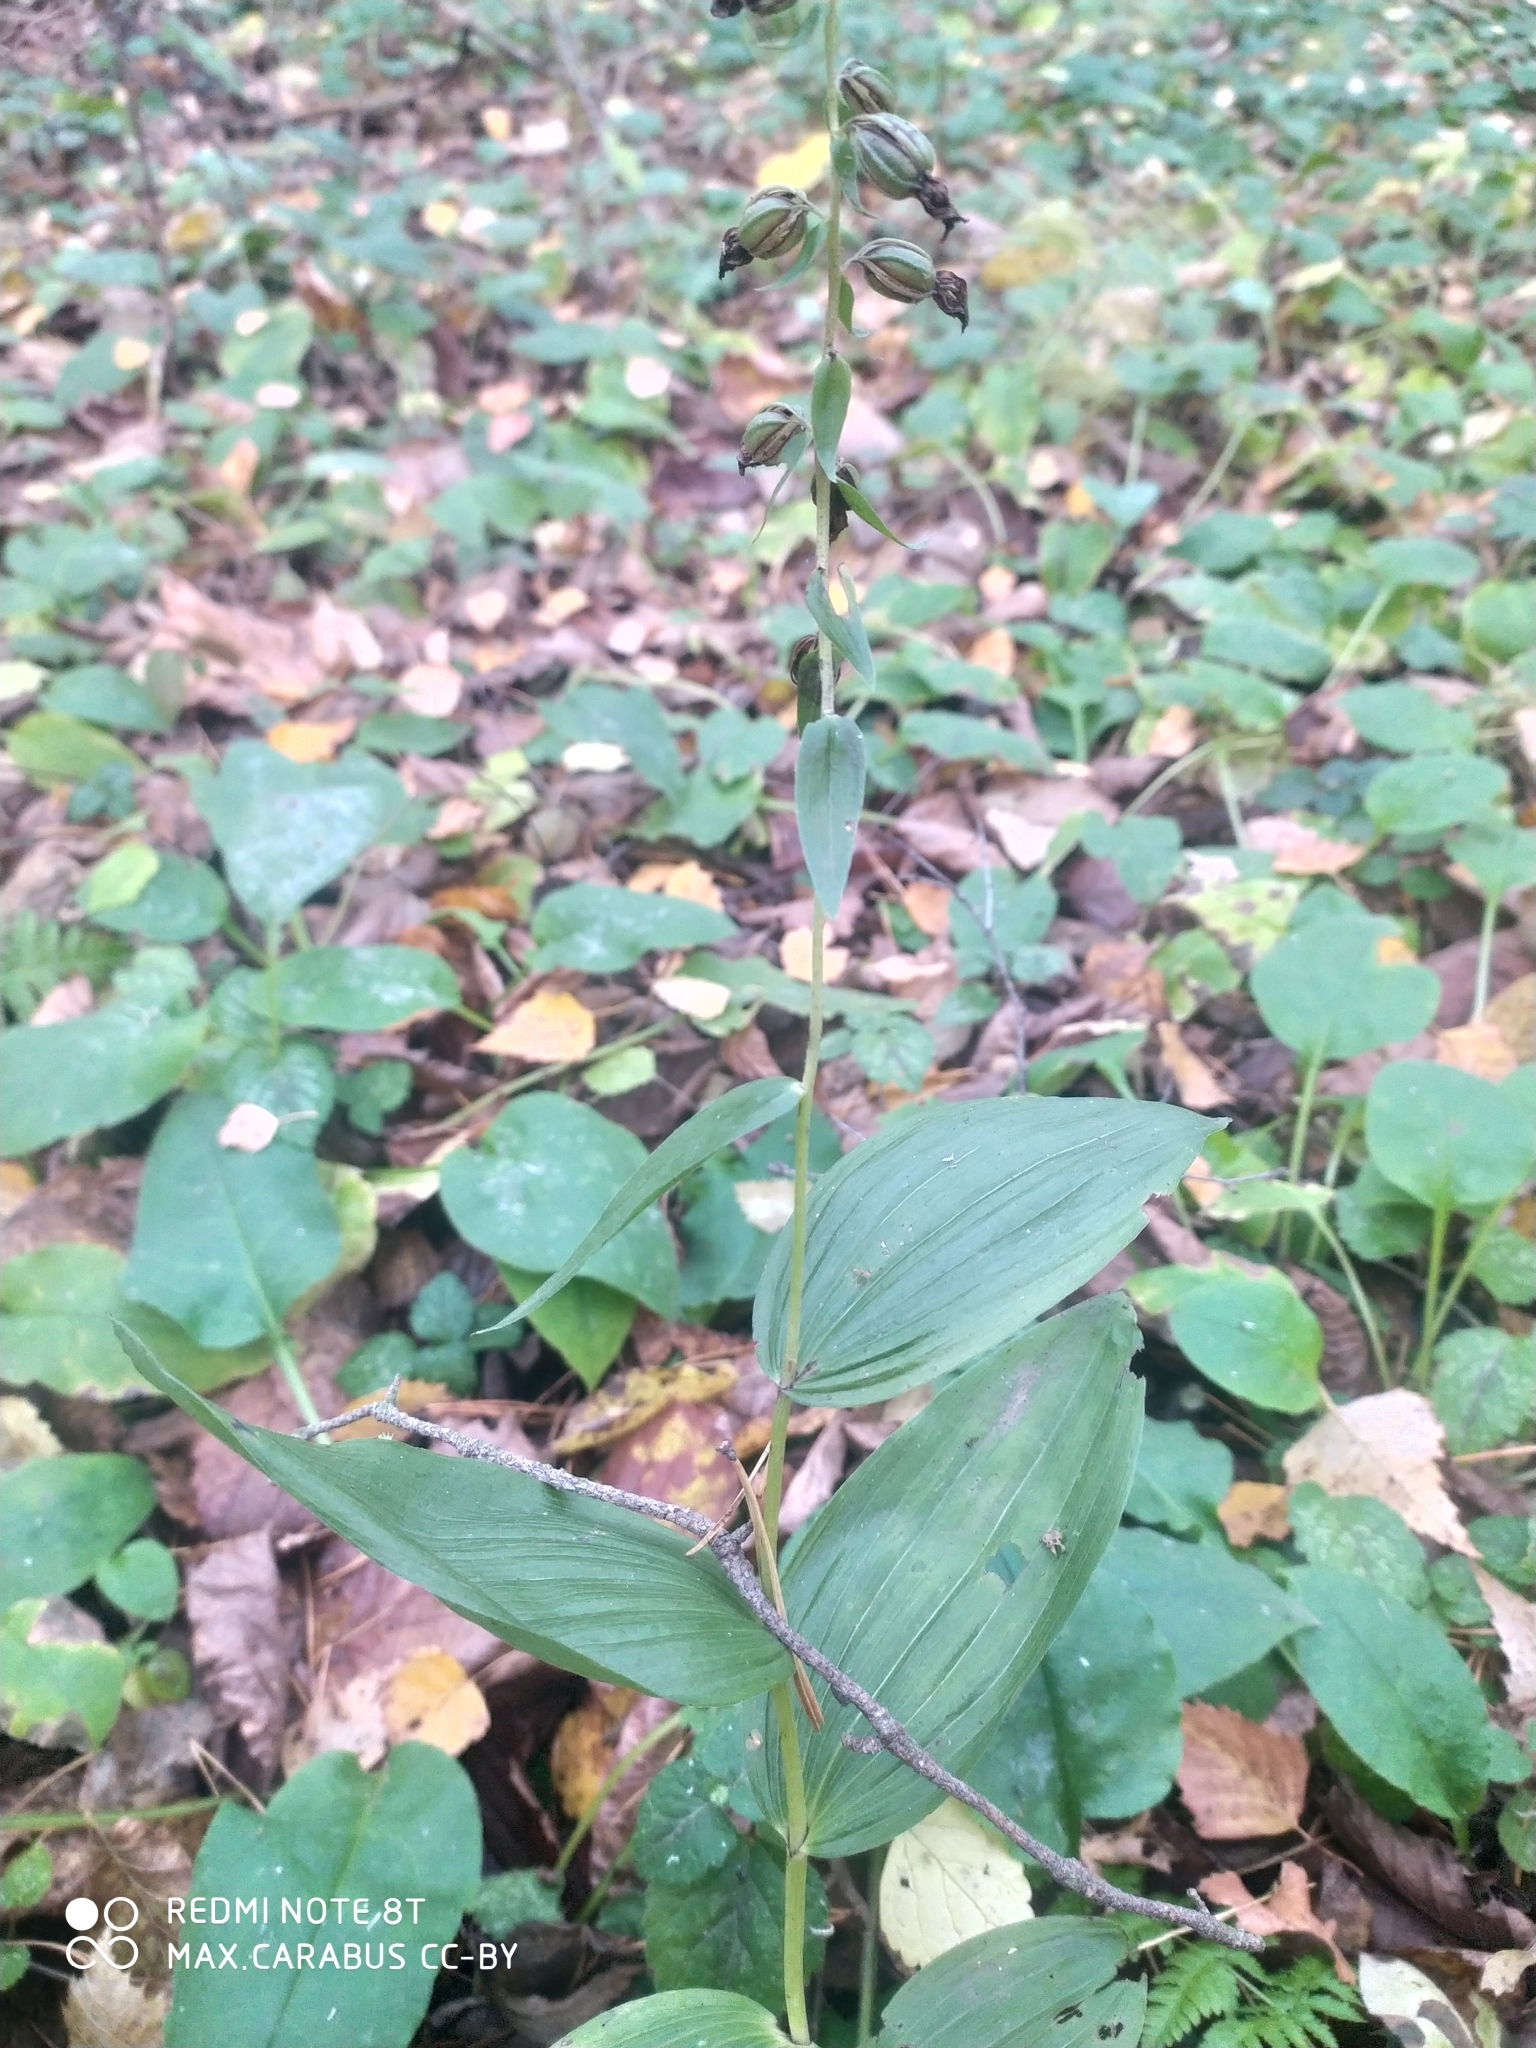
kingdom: Plantae
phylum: Tracheophyta
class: Liliopsida
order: Asparagales
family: Orchidaceae
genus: Epipactis
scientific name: Epipactis helleborine
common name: Broad-leaved helleborine
